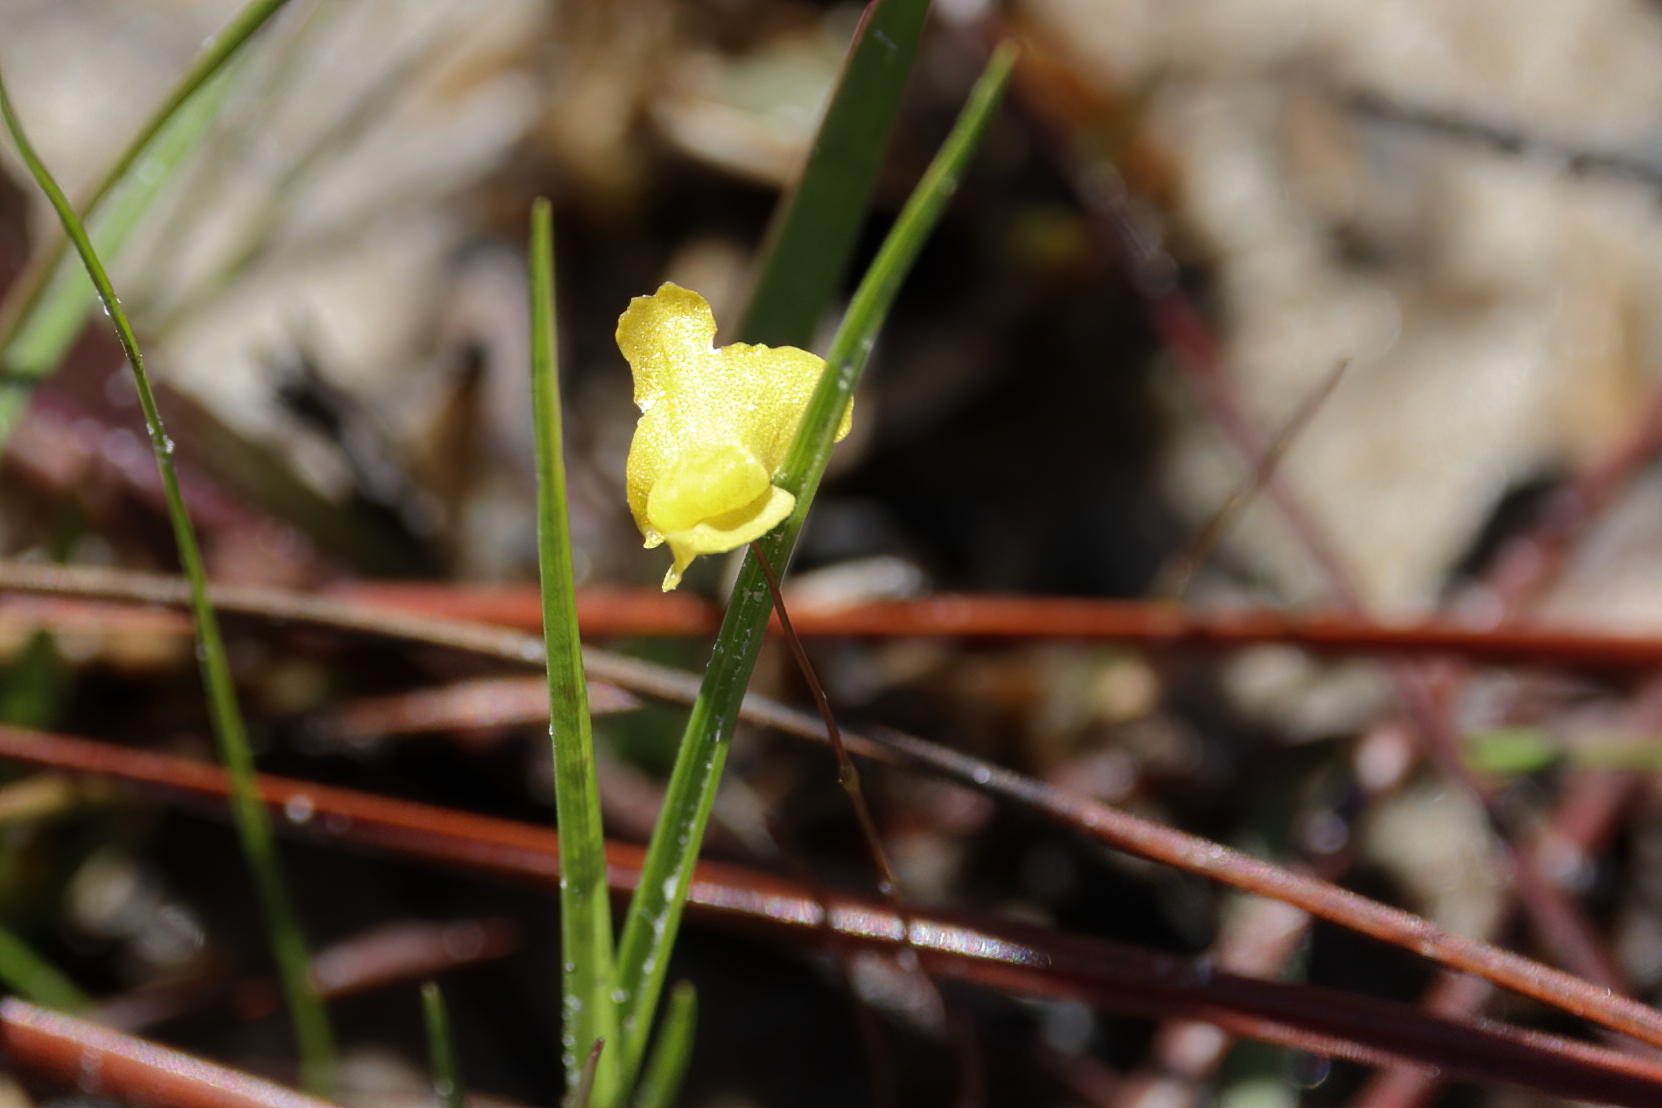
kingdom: Plantae
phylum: Tracheophyta
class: Magnoliopsida
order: Lamiales
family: Lentibulariaceae
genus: Utricularia
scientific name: Utricularia subulata
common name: Tiny bladderwort
